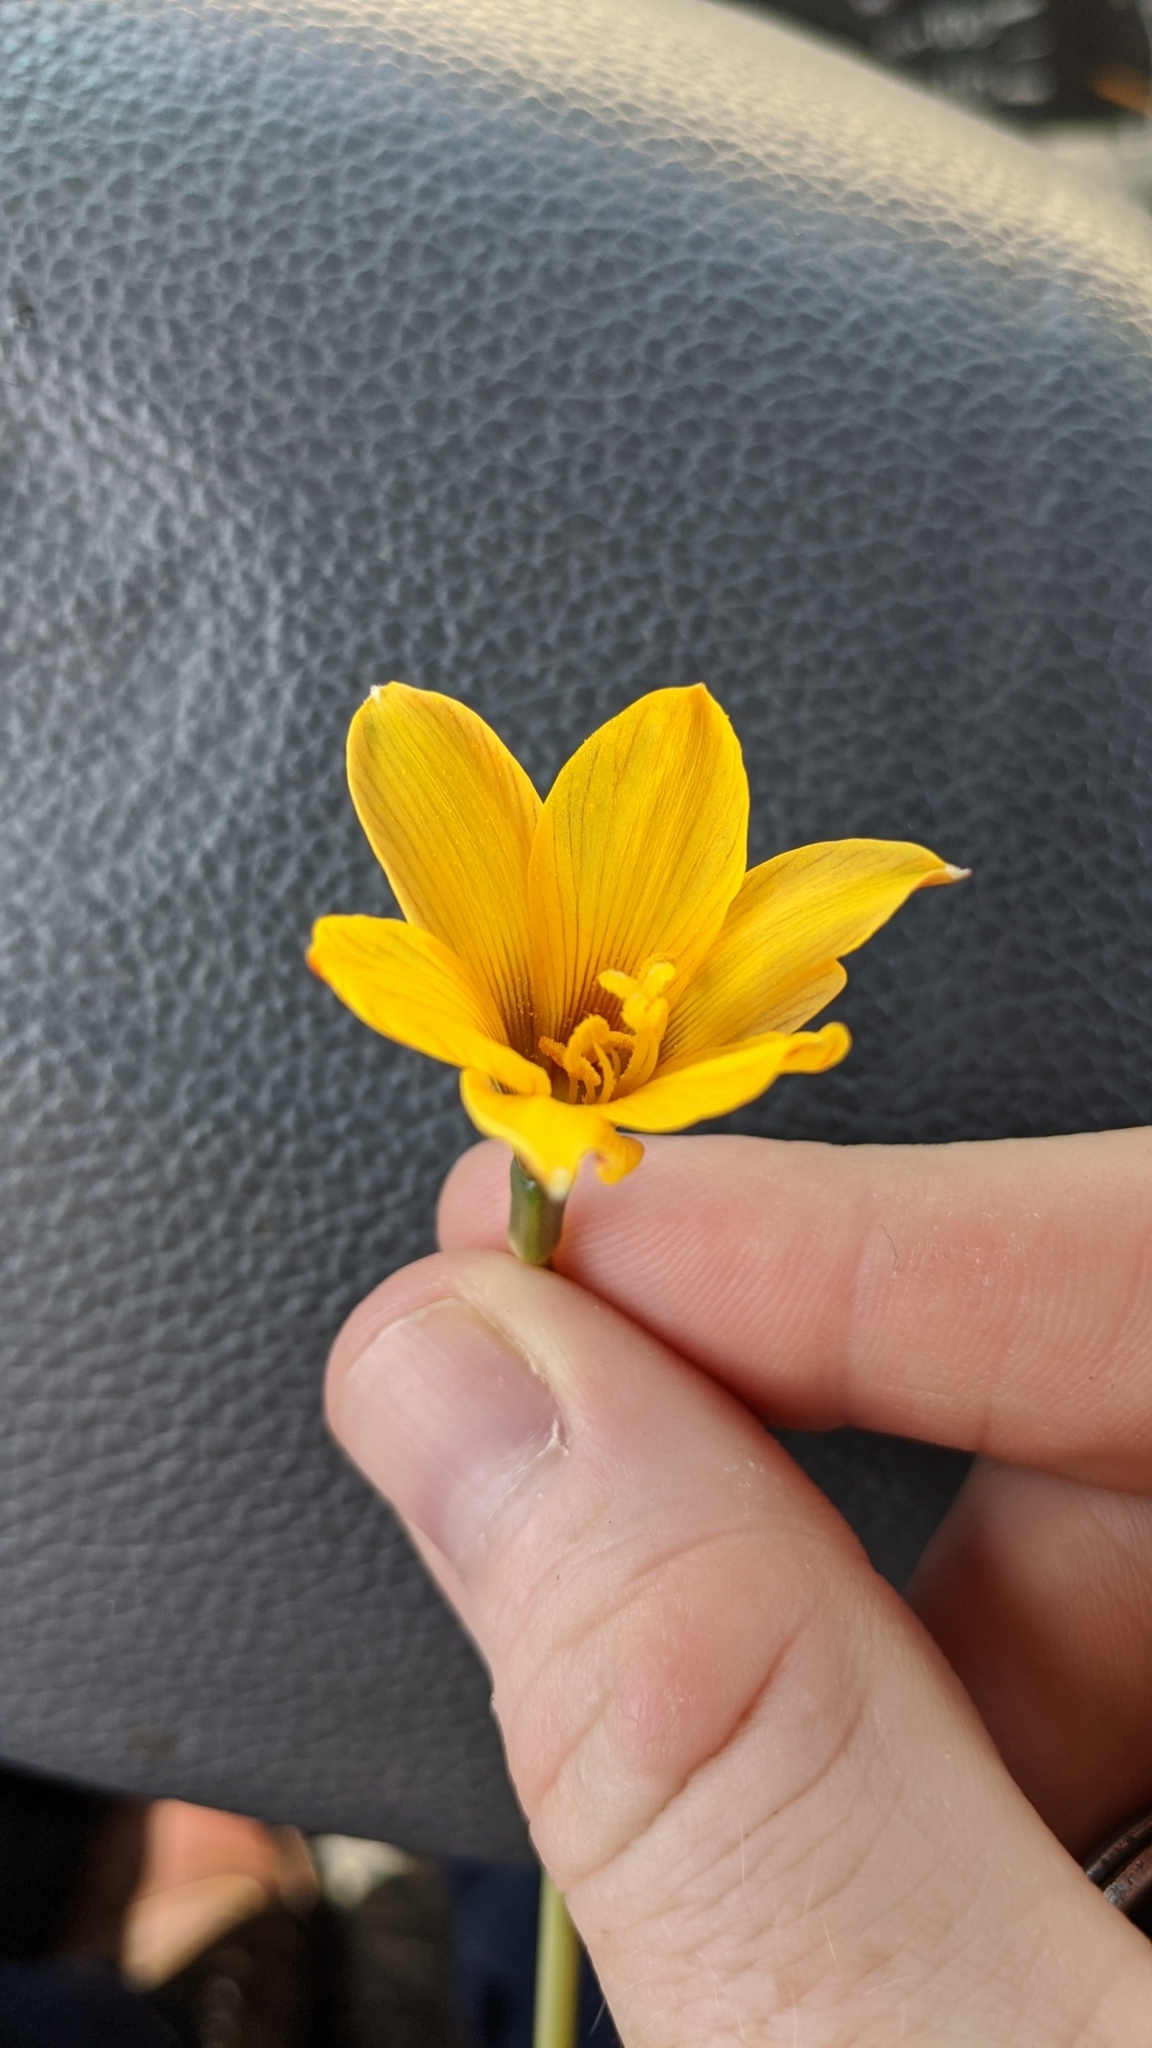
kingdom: Plantae
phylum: Tracheophyta
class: Liliopsida
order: Asparagales
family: Amaryllidaceae
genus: Zephyranthes
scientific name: Zephyranthes tubispatha
